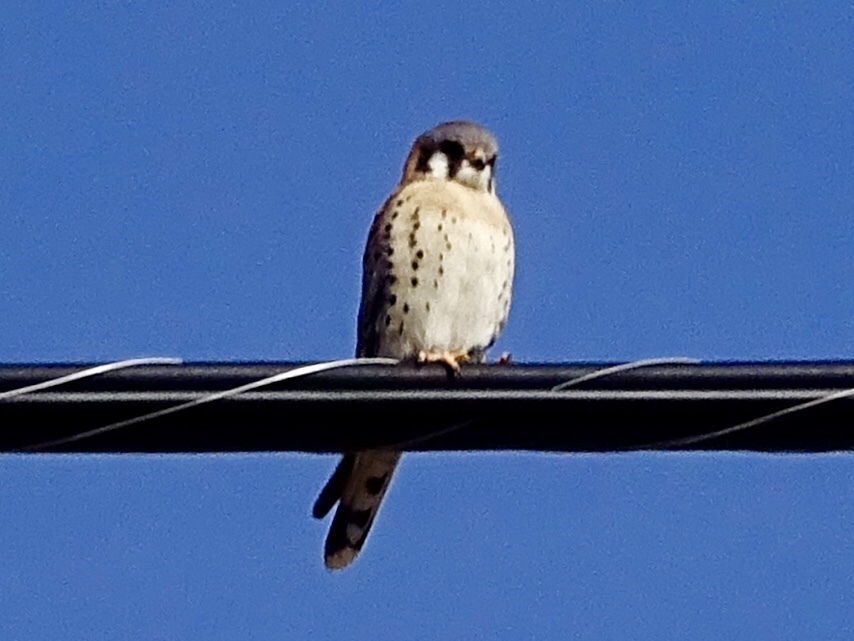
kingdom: Animalia
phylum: Chordata
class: Aves
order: Falconiformes
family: Falconidae
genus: Falco
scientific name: Falco sparverius
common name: American kestrel
